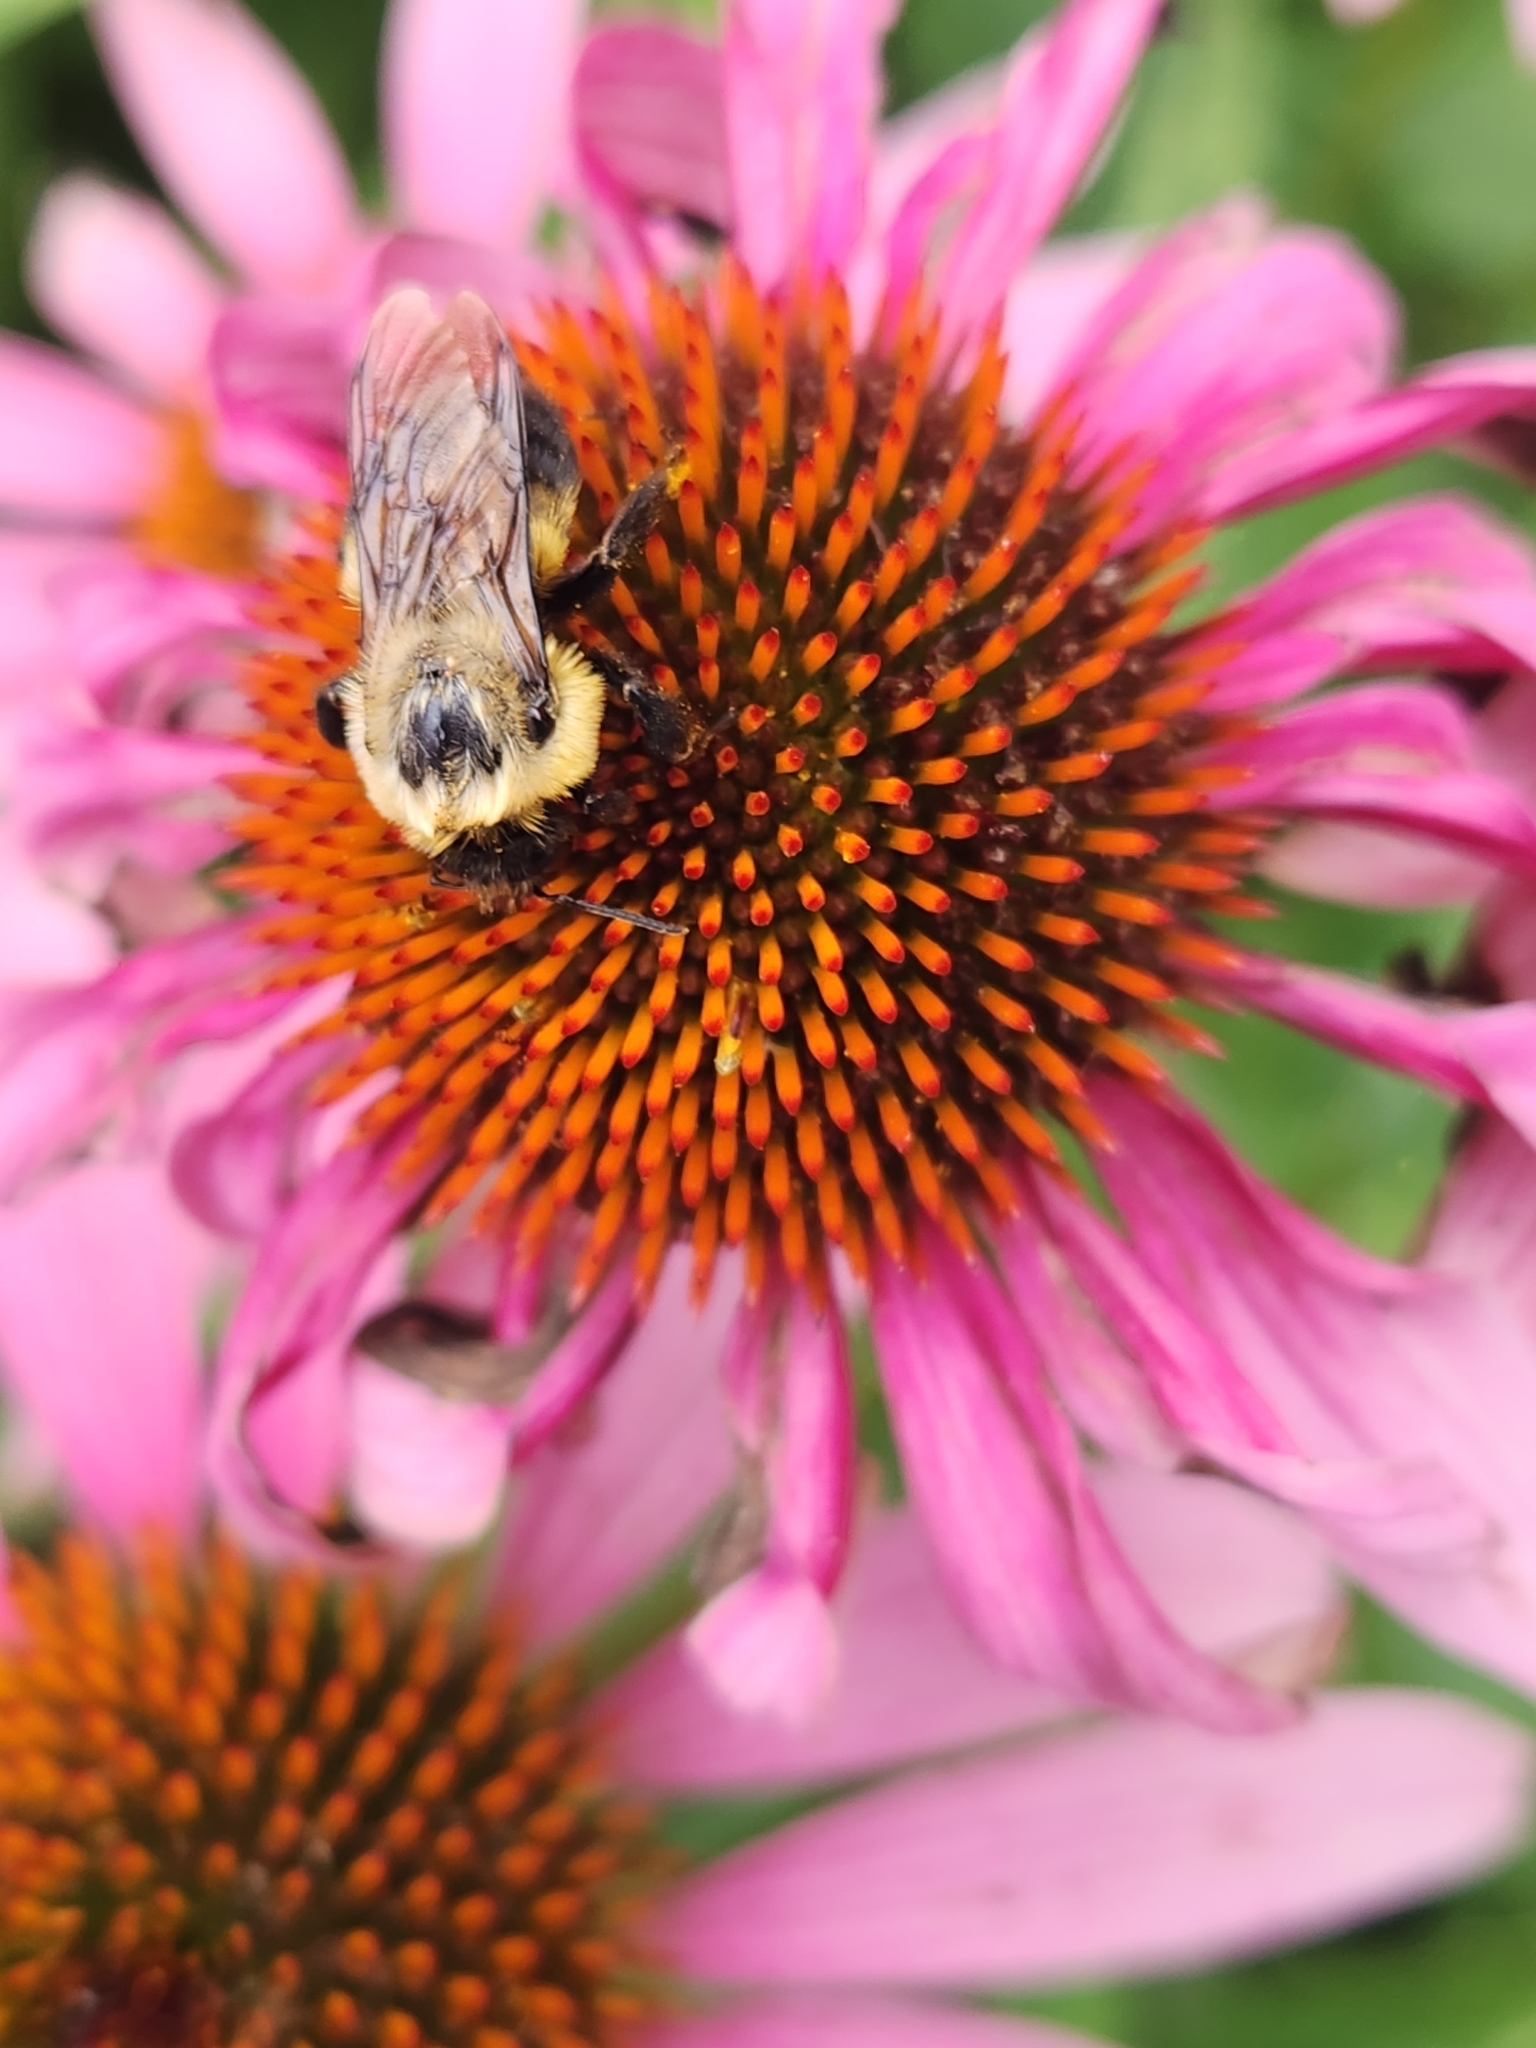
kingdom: Animalia
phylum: Arthropoda
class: Insecta
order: Hymenoptera
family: Apidae
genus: Bombus
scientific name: Bombus griseocollis
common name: Brown-belted bumble bee
